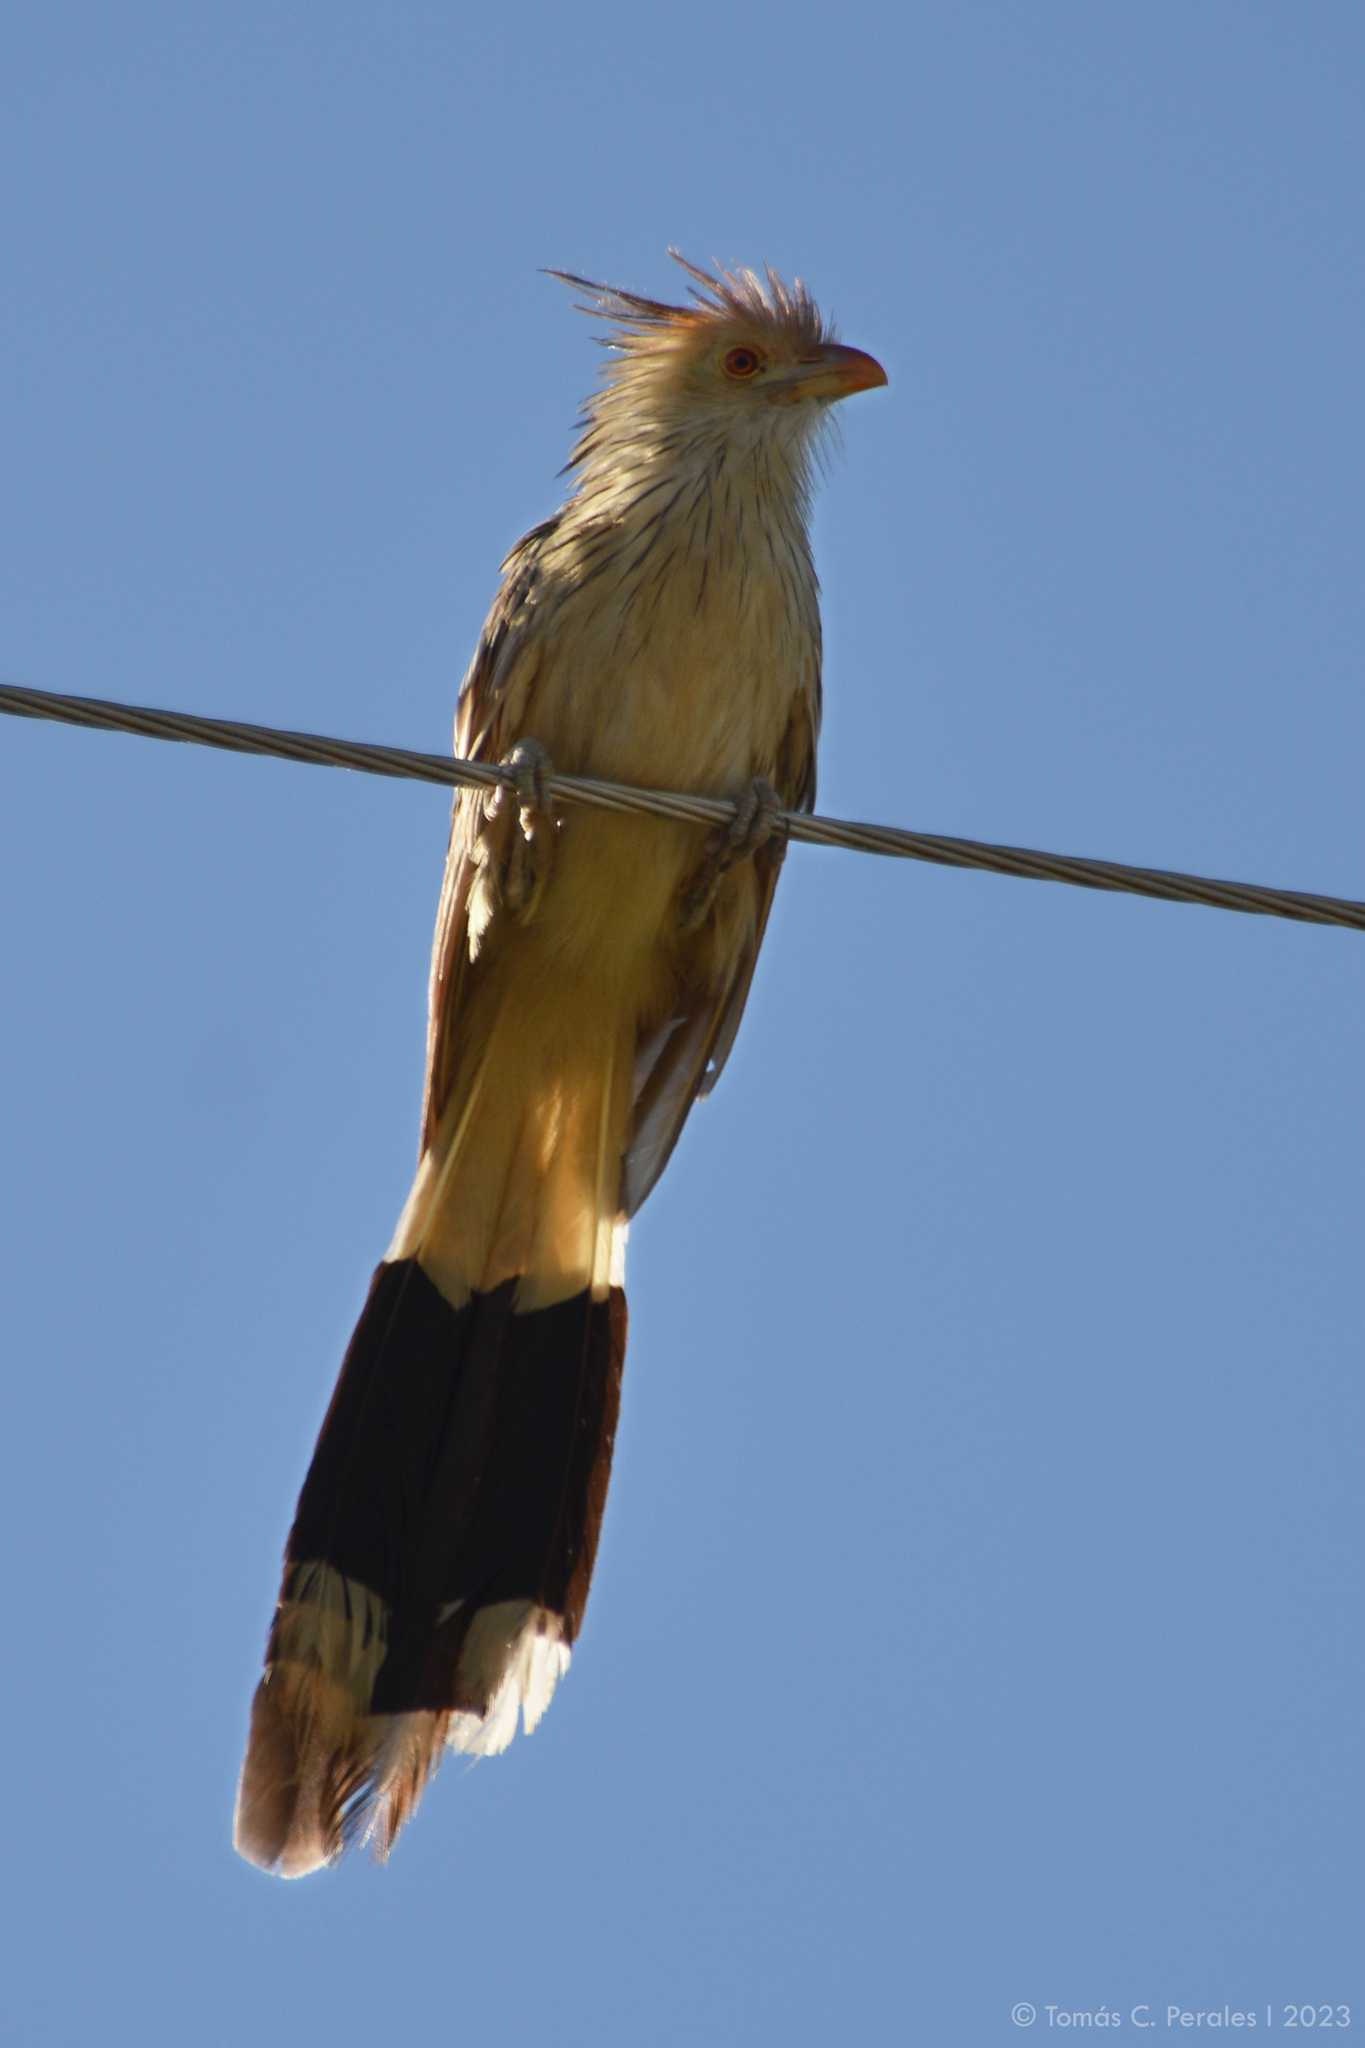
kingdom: Animalia
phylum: Chordata
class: Aves
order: Cuculiformes
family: Cuculidae
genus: Guira
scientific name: Guira guira
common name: Guira cuckoo
